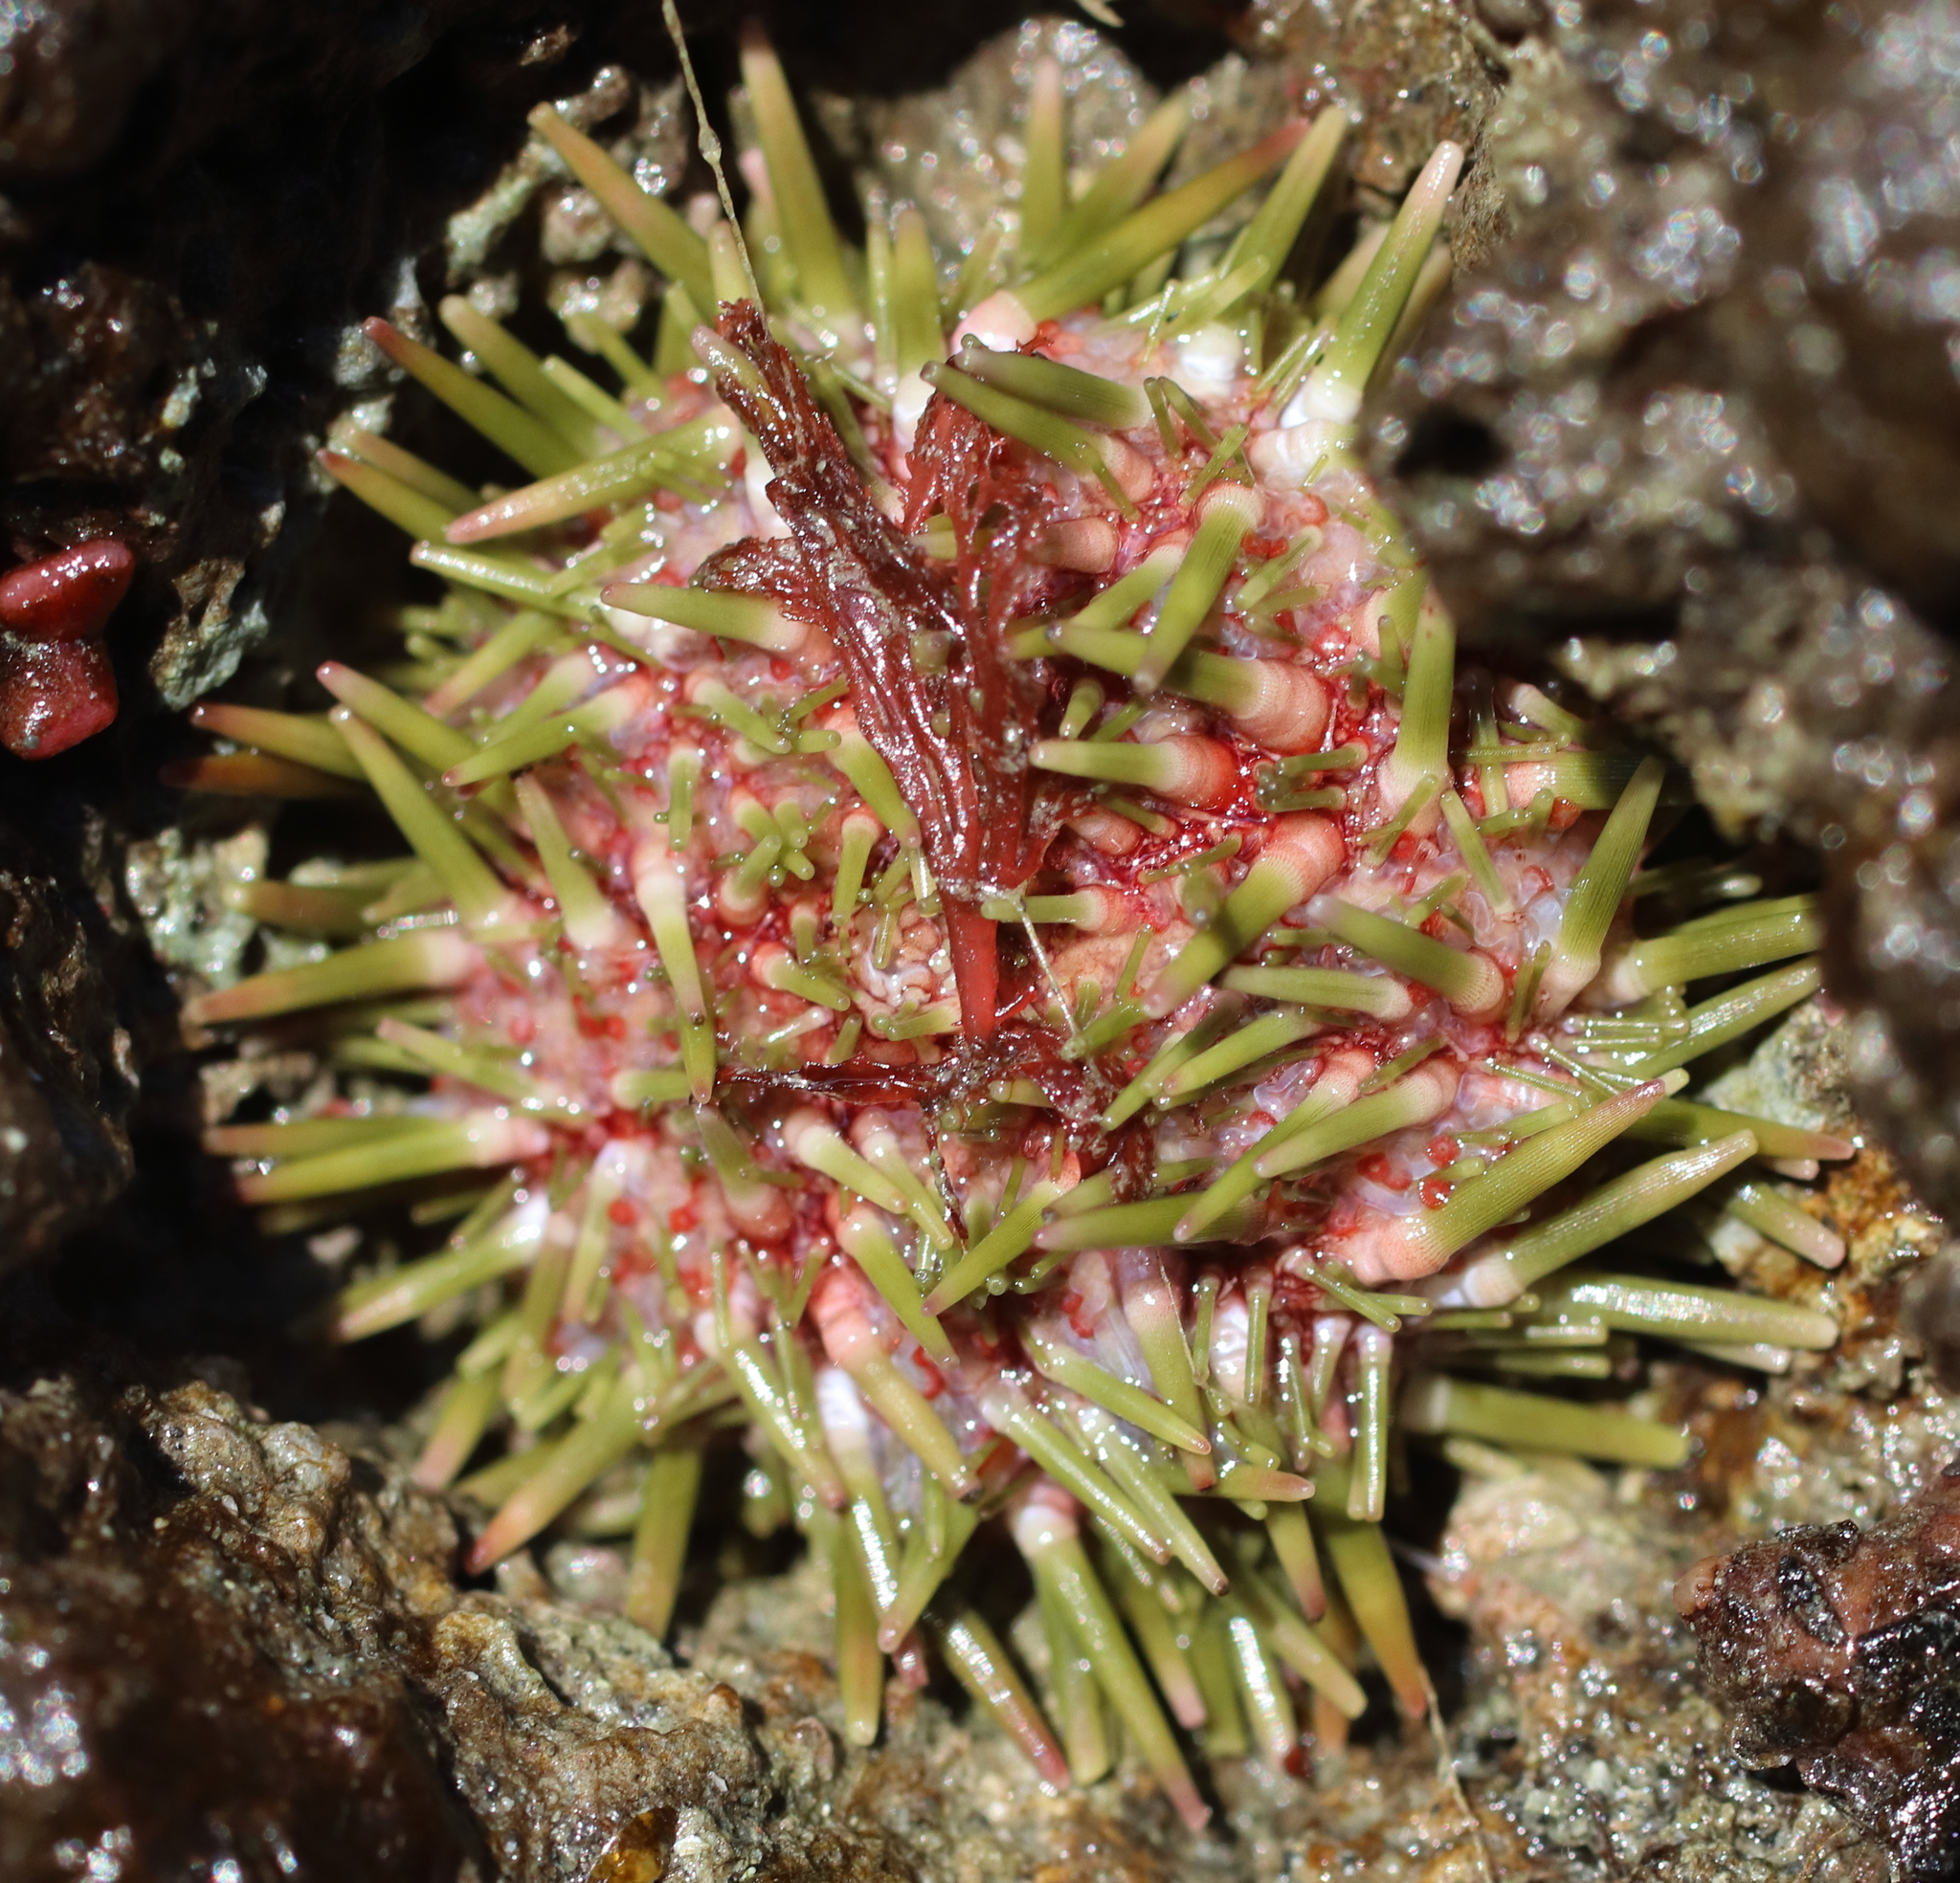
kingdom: Animalia
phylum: Echinodermata
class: Echinoidea
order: Camarodonta
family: Strongylocentrotidae
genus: Strongylocentrotus
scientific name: Strongylocentrotus purpuratus
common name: Purple sea urchin
